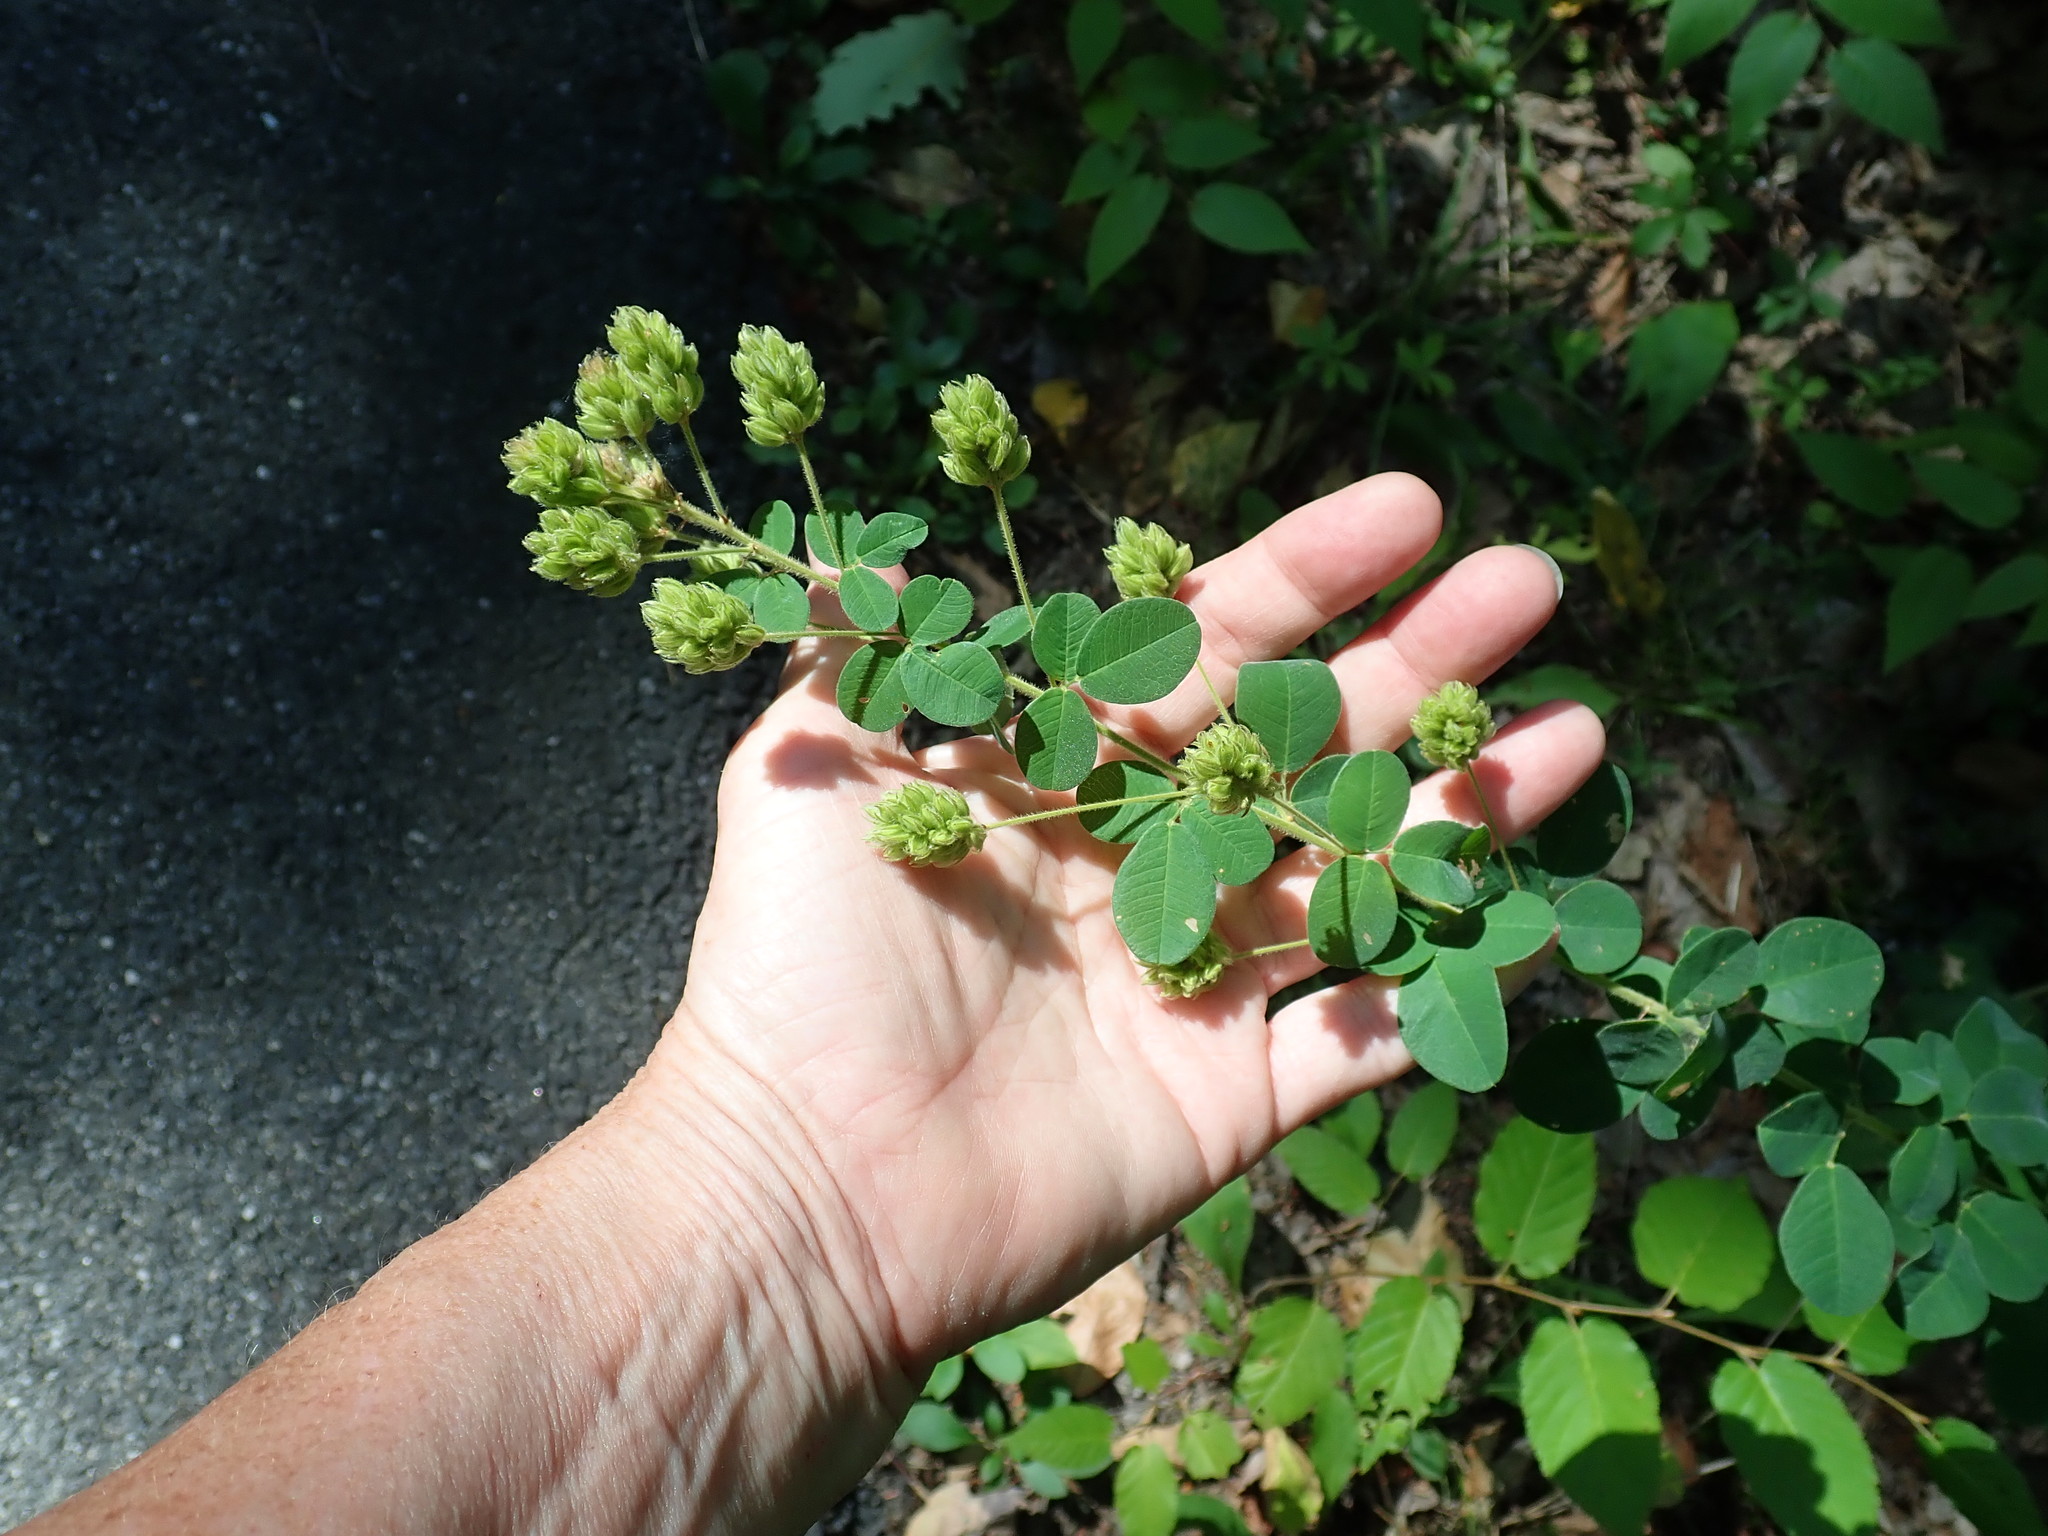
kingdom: Plantae
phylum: Tracheophyta
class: Magnoliopsida
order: Fabales
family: Fabaceae
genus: Lespedeza
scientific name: Lespedeza hirta
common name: Hairy lespedeza
